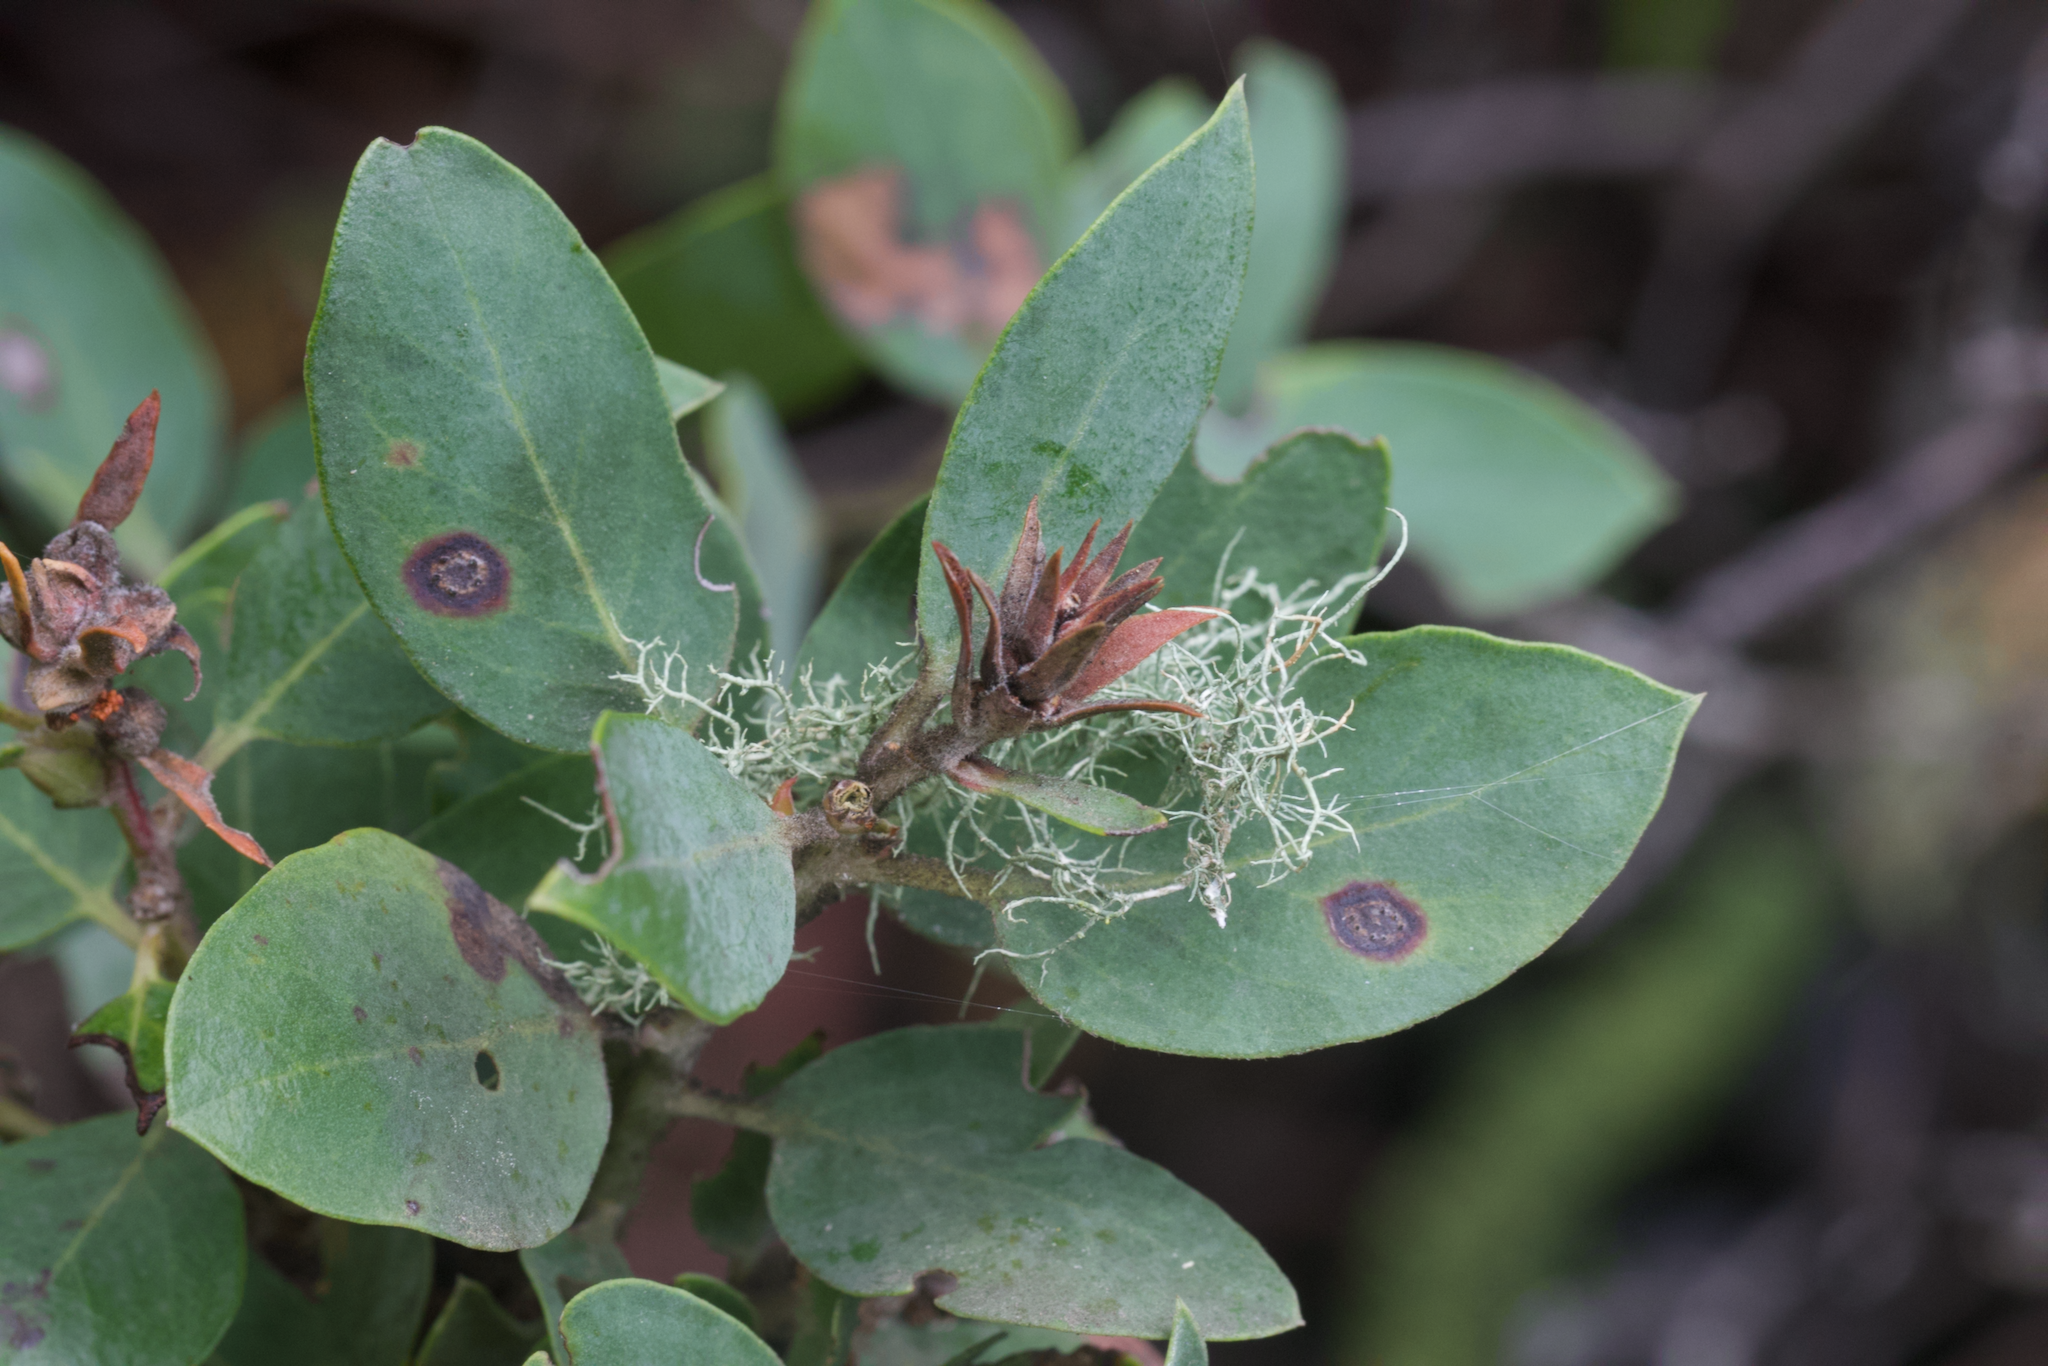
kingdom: Plantae
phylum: Tracheophyta
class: Magnoliopsida
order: Ericales
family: Ericaceae
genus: Arctostaphylos
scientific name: Arctostaphylos glandulosa
